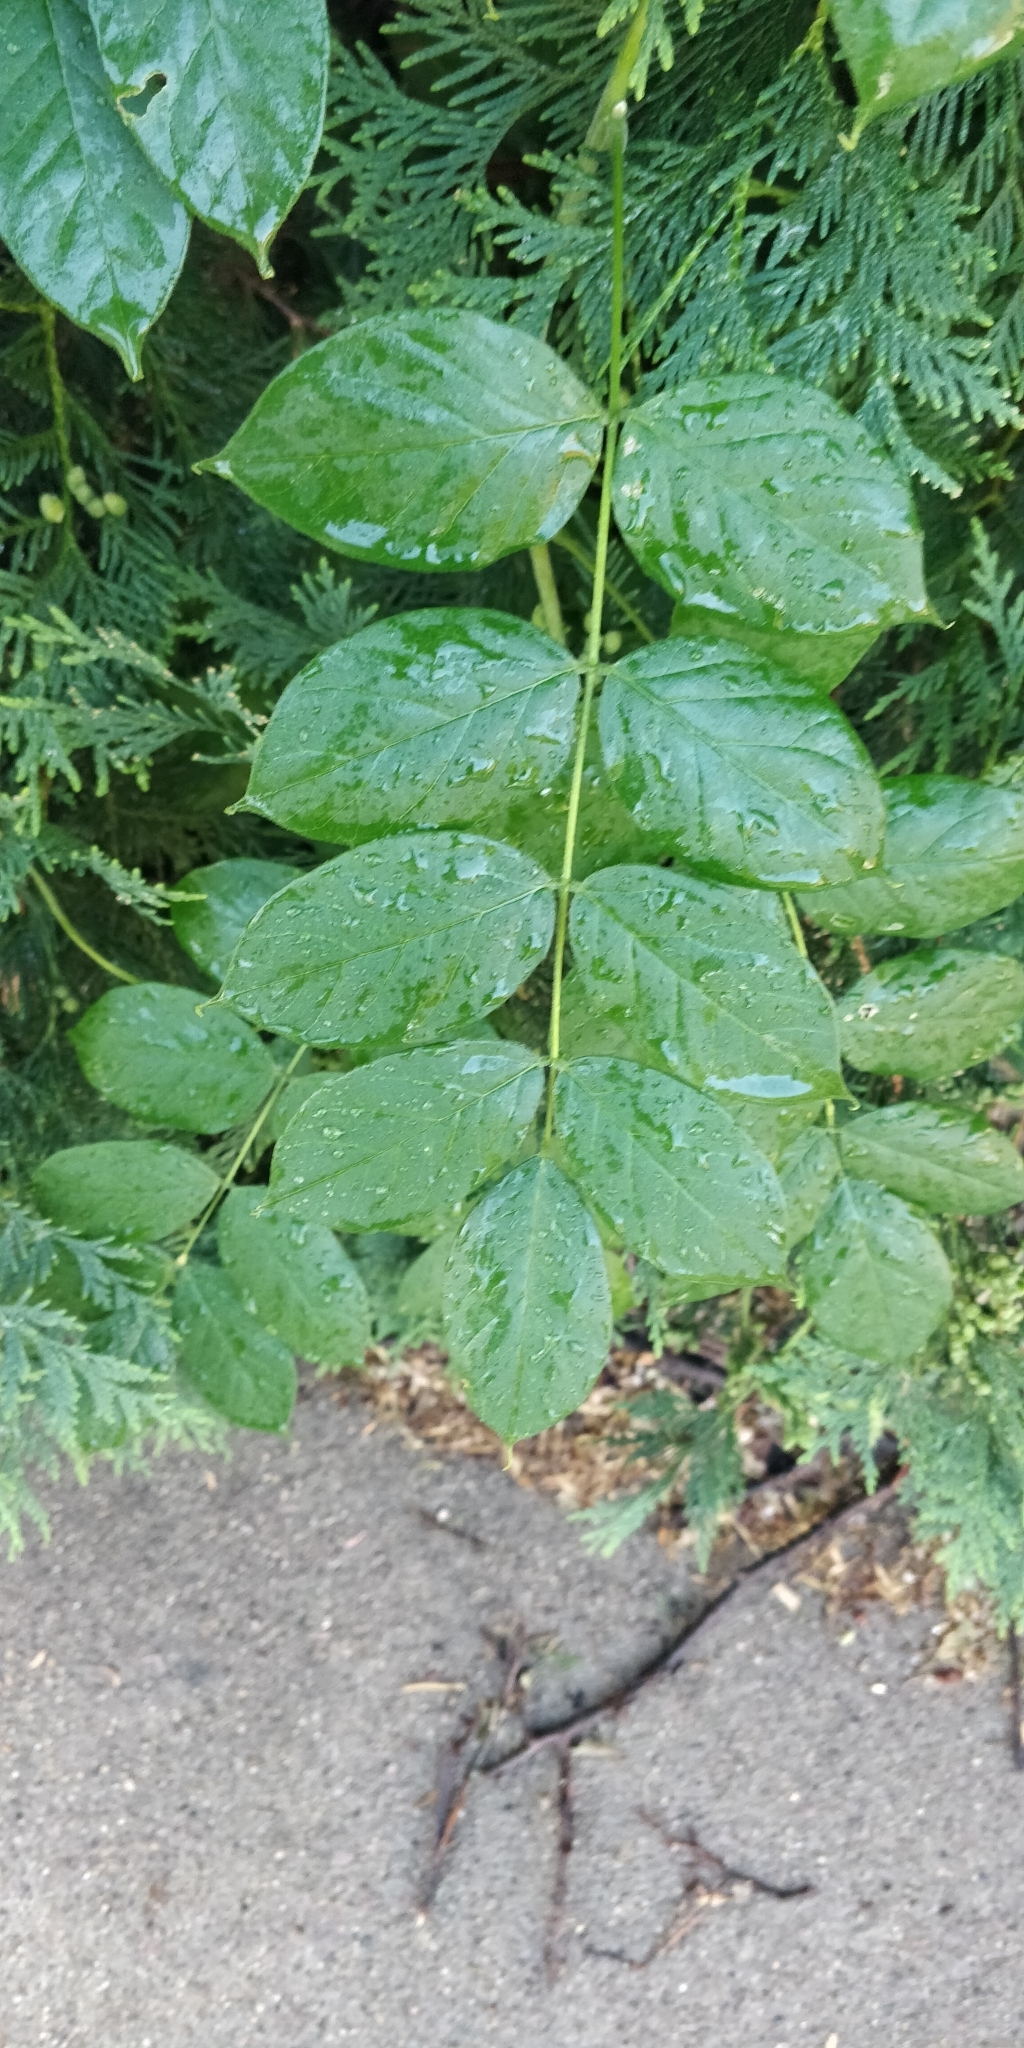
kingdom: Plantae
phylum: Tracheophyta
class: Magnoliopsida
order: Lamiales
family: Bignoniaceae
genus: Campsis
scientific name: Campsis radicans
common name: Trumpet-creeper
